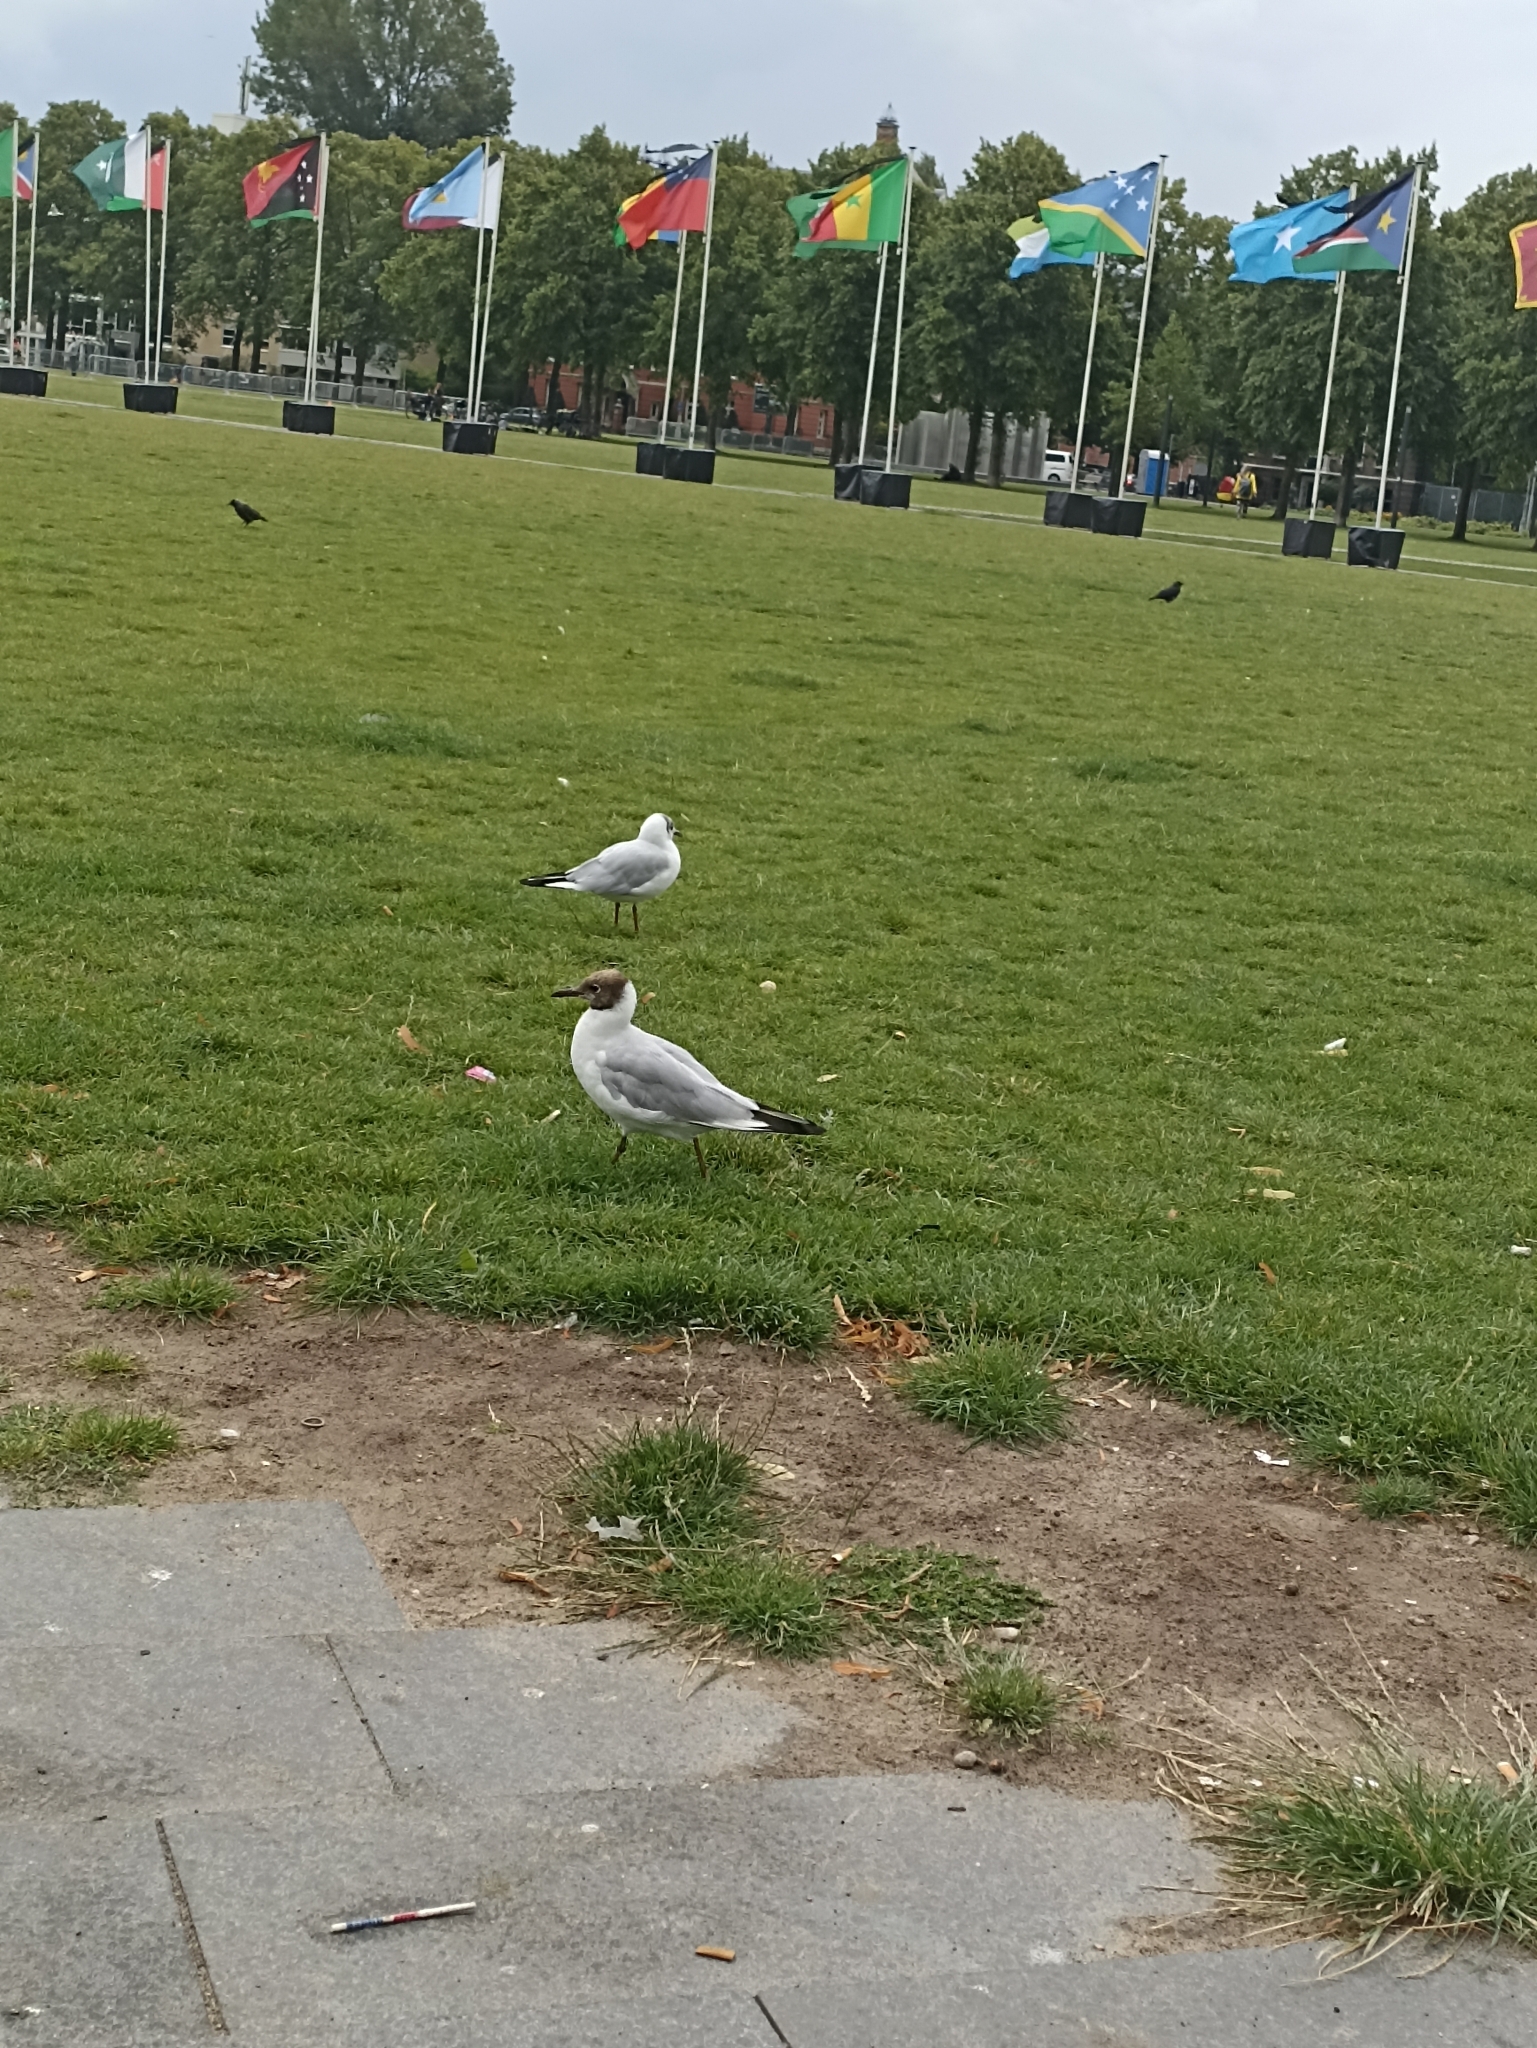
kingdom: Animalia
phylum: Chordata
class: Aves
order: Charadriiformes
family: Laridae
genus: Chroicocephalus
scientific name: Chroicocephalus ridibundus
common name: Black-headed gull
